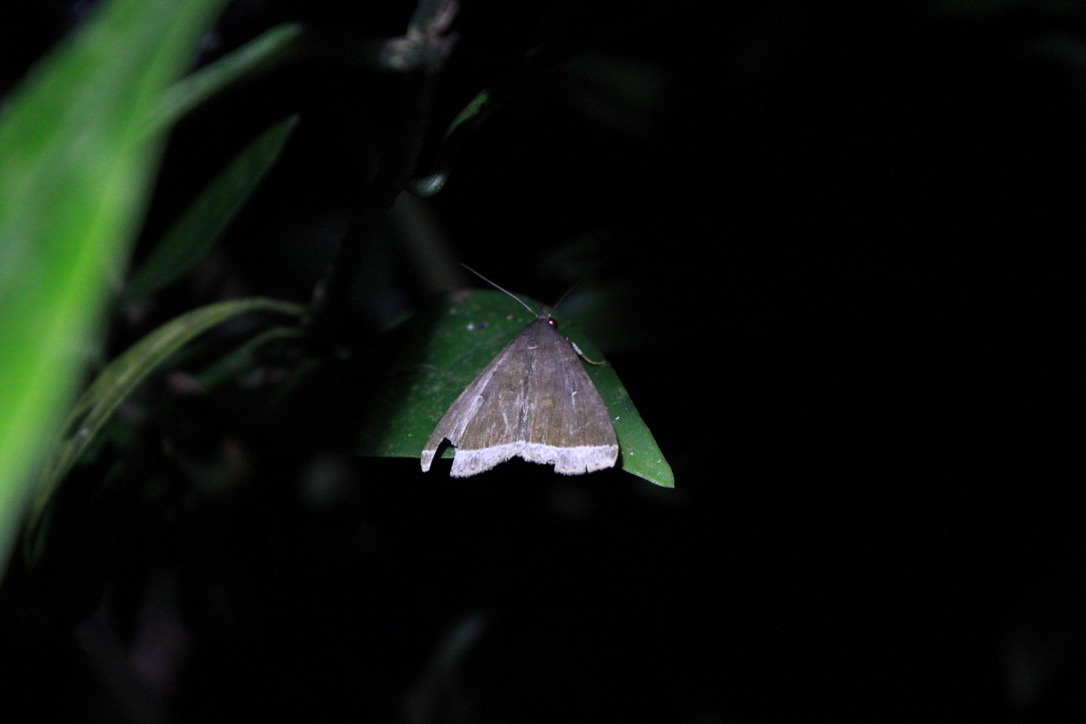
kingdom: Animalia
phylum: Arthropoda
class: Insecta
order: Lepidoptera
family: Erebidae
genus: Mamerthes
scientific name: Mamerthes orionalis
